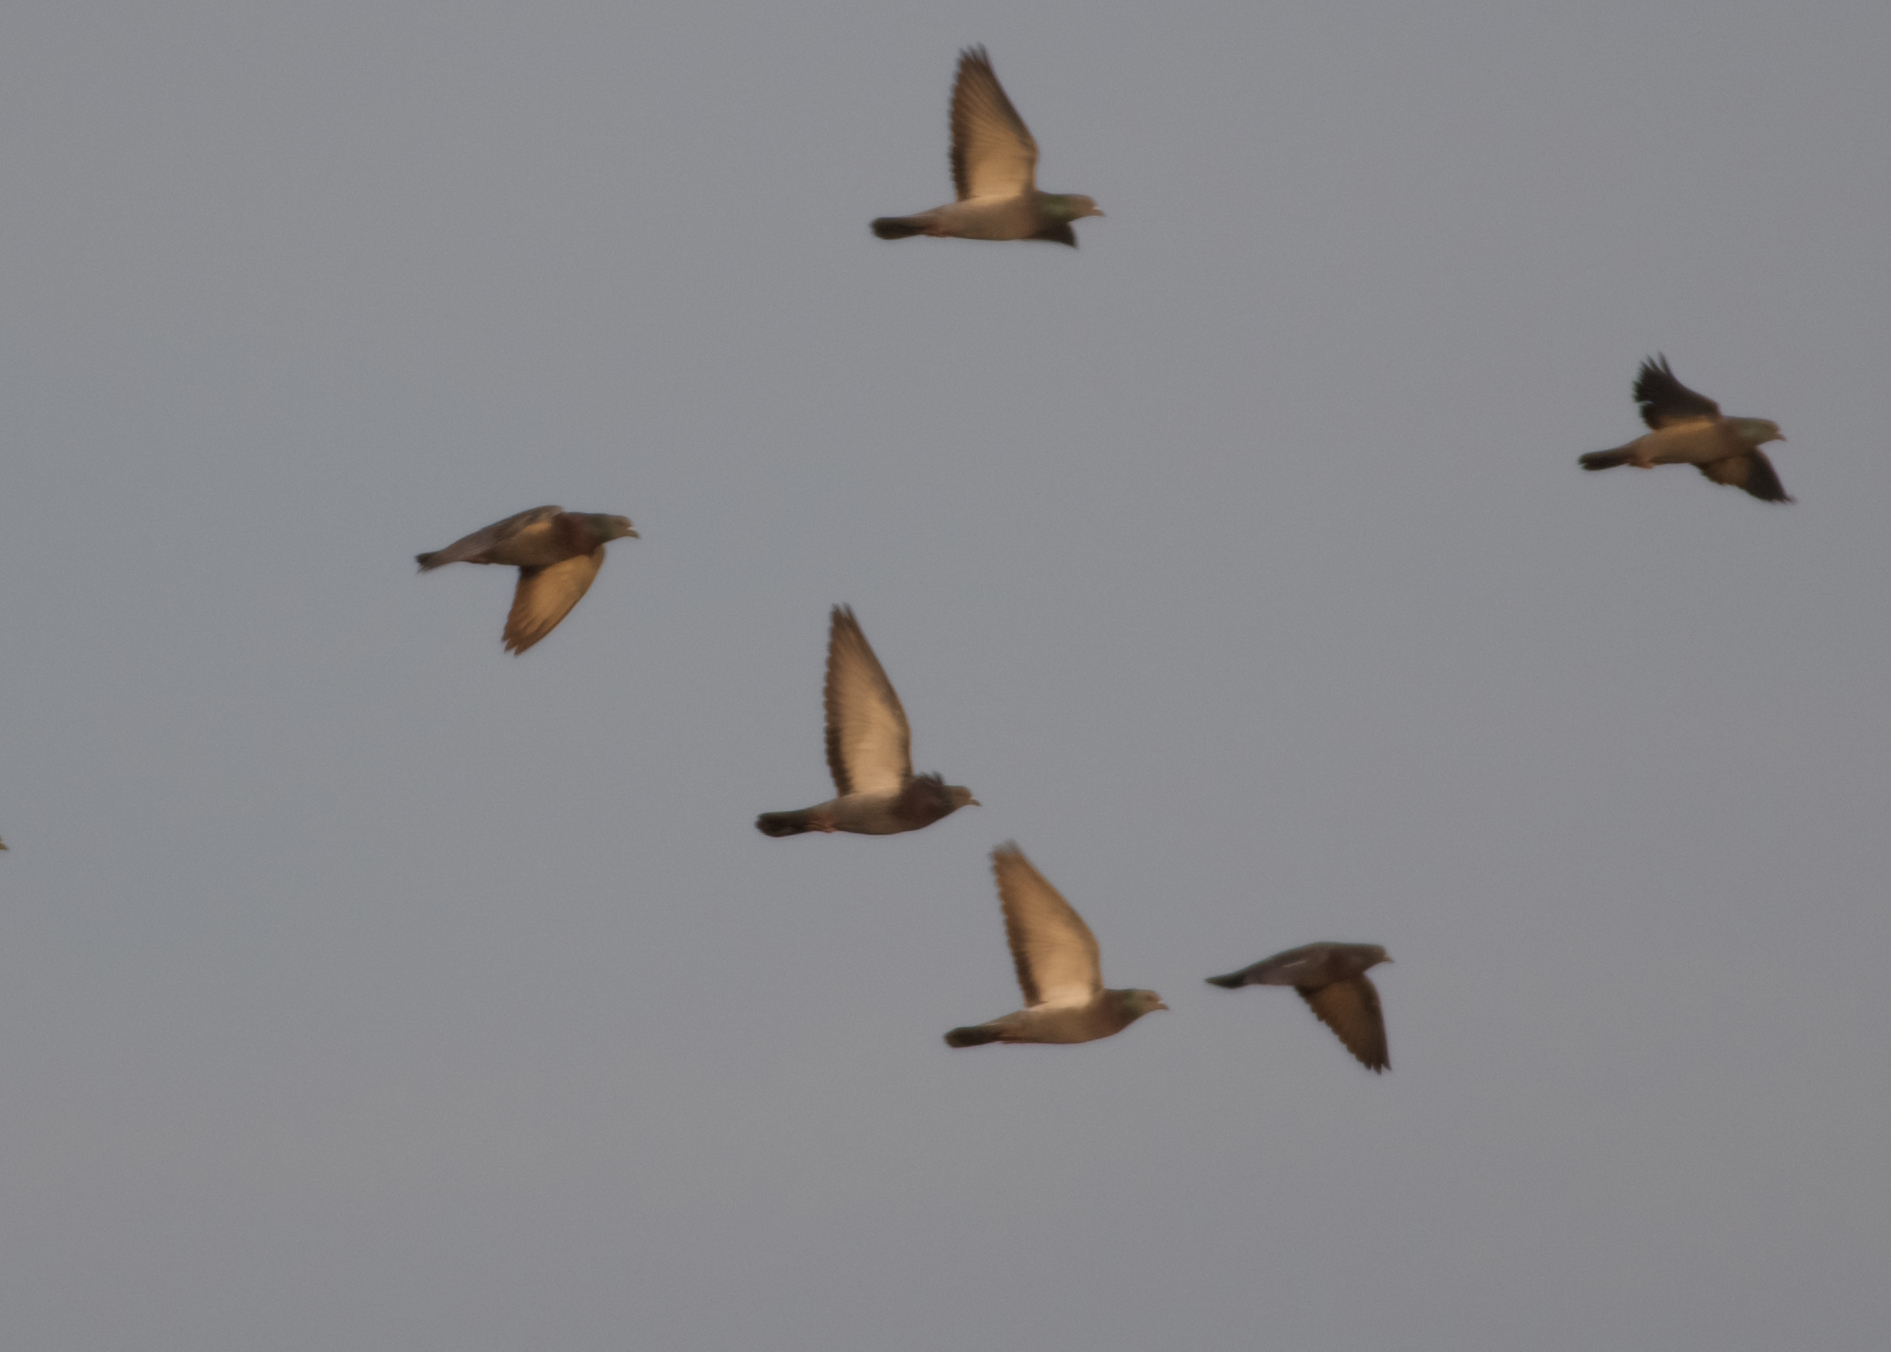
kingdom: Animalia
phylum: Chordata
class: Aves
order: Columbiformes
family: Columbidae
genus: Columba
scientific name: Columba livia
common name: Rock pigeon
